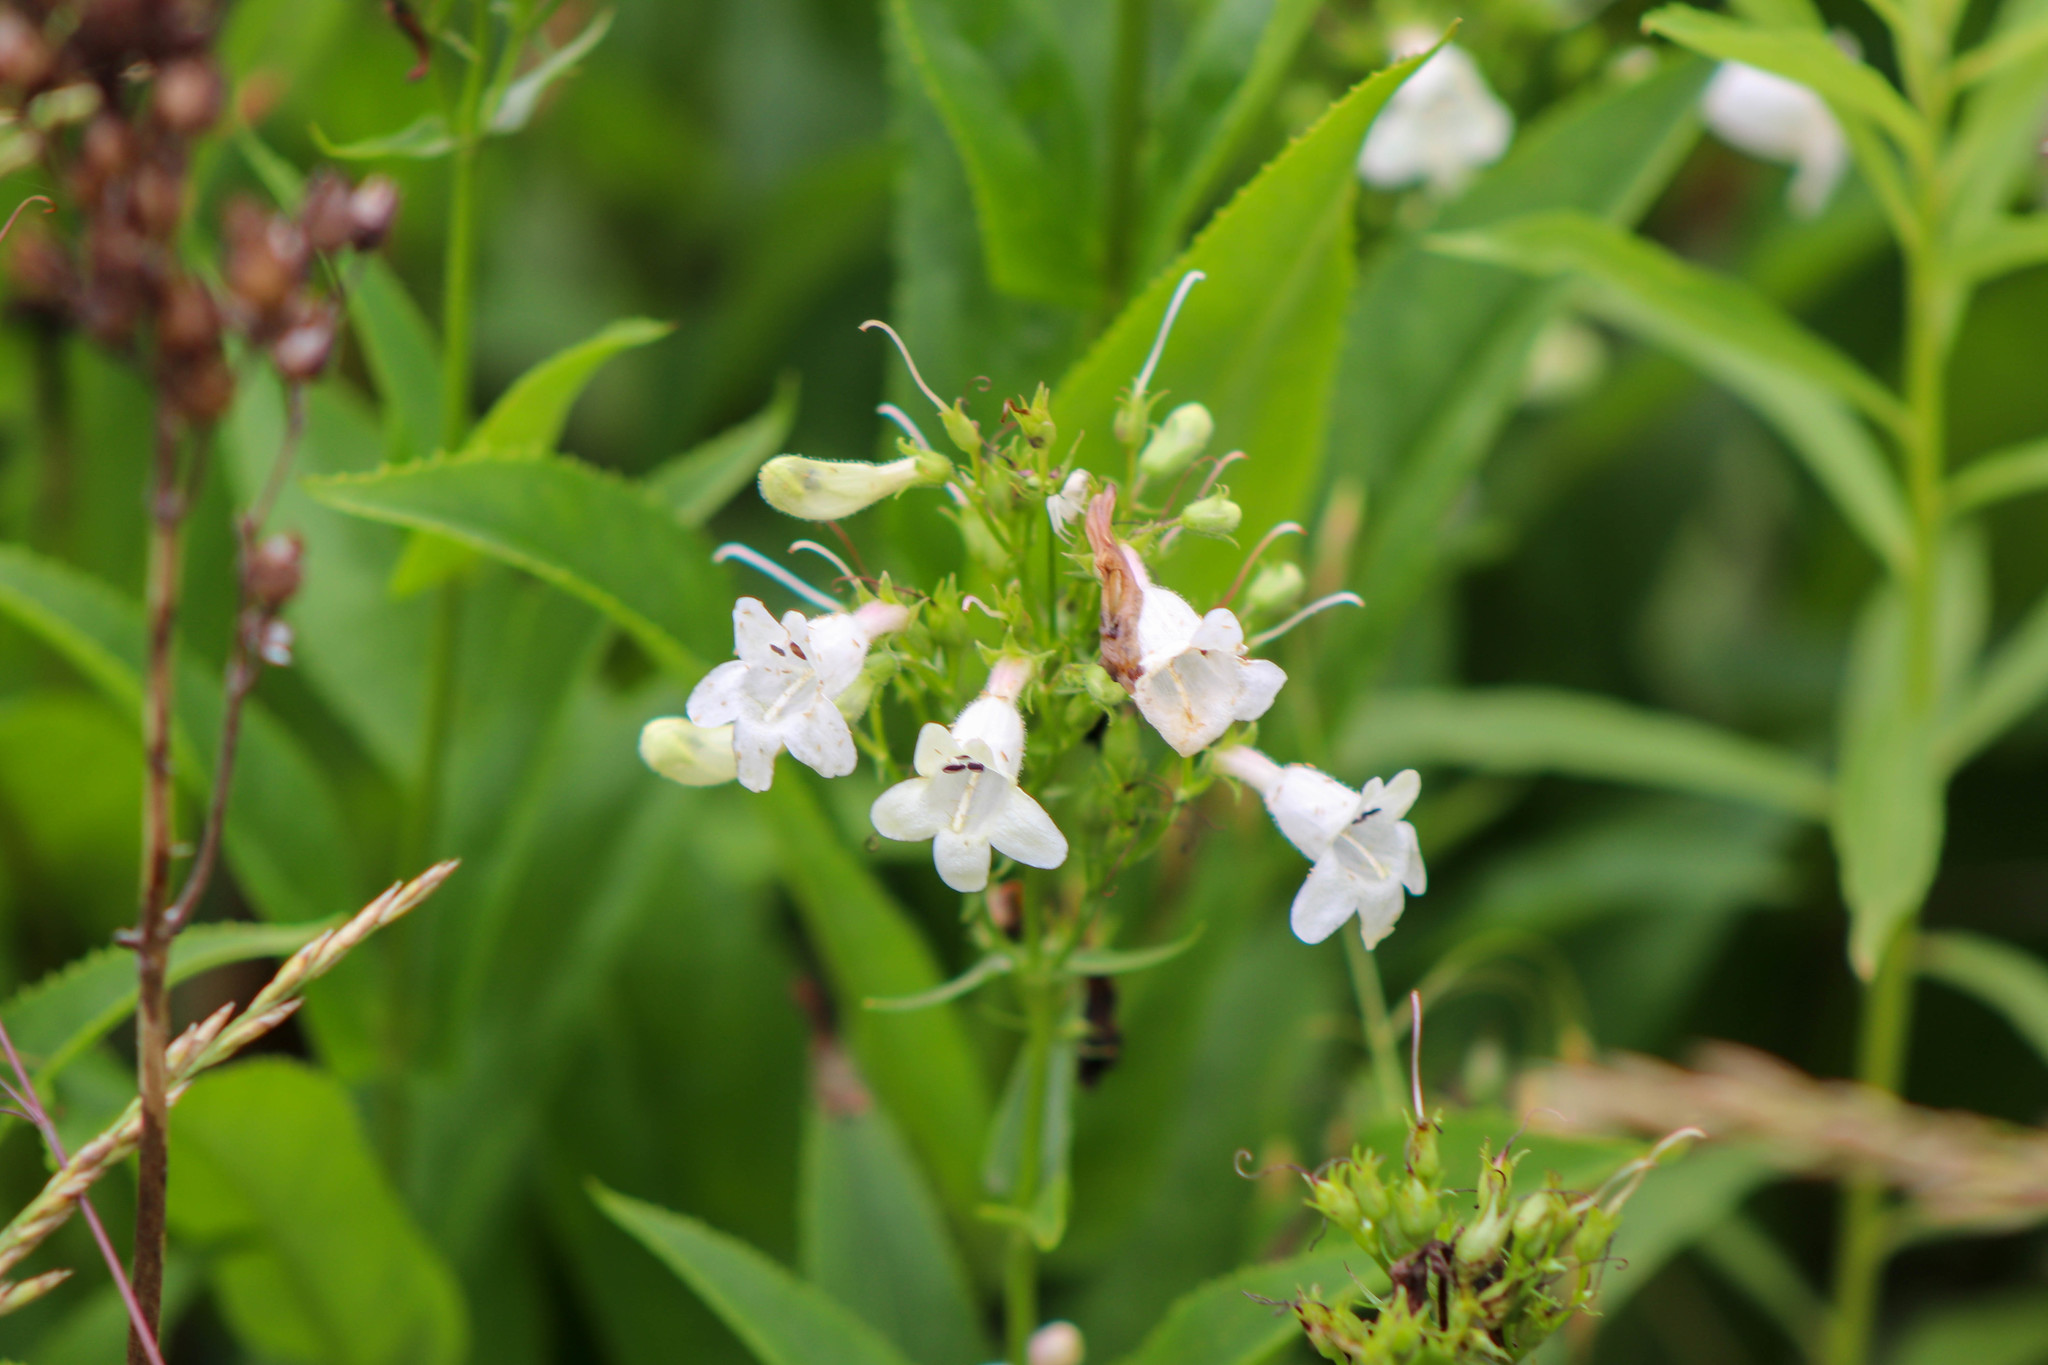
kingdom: Plantae
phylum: Tracheophyta
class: Magnoliopsida
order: Lamiales
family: Plantaginaceae
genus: Penstemon
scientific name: Penstemon digitalis
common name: Foxglove beardtongue
